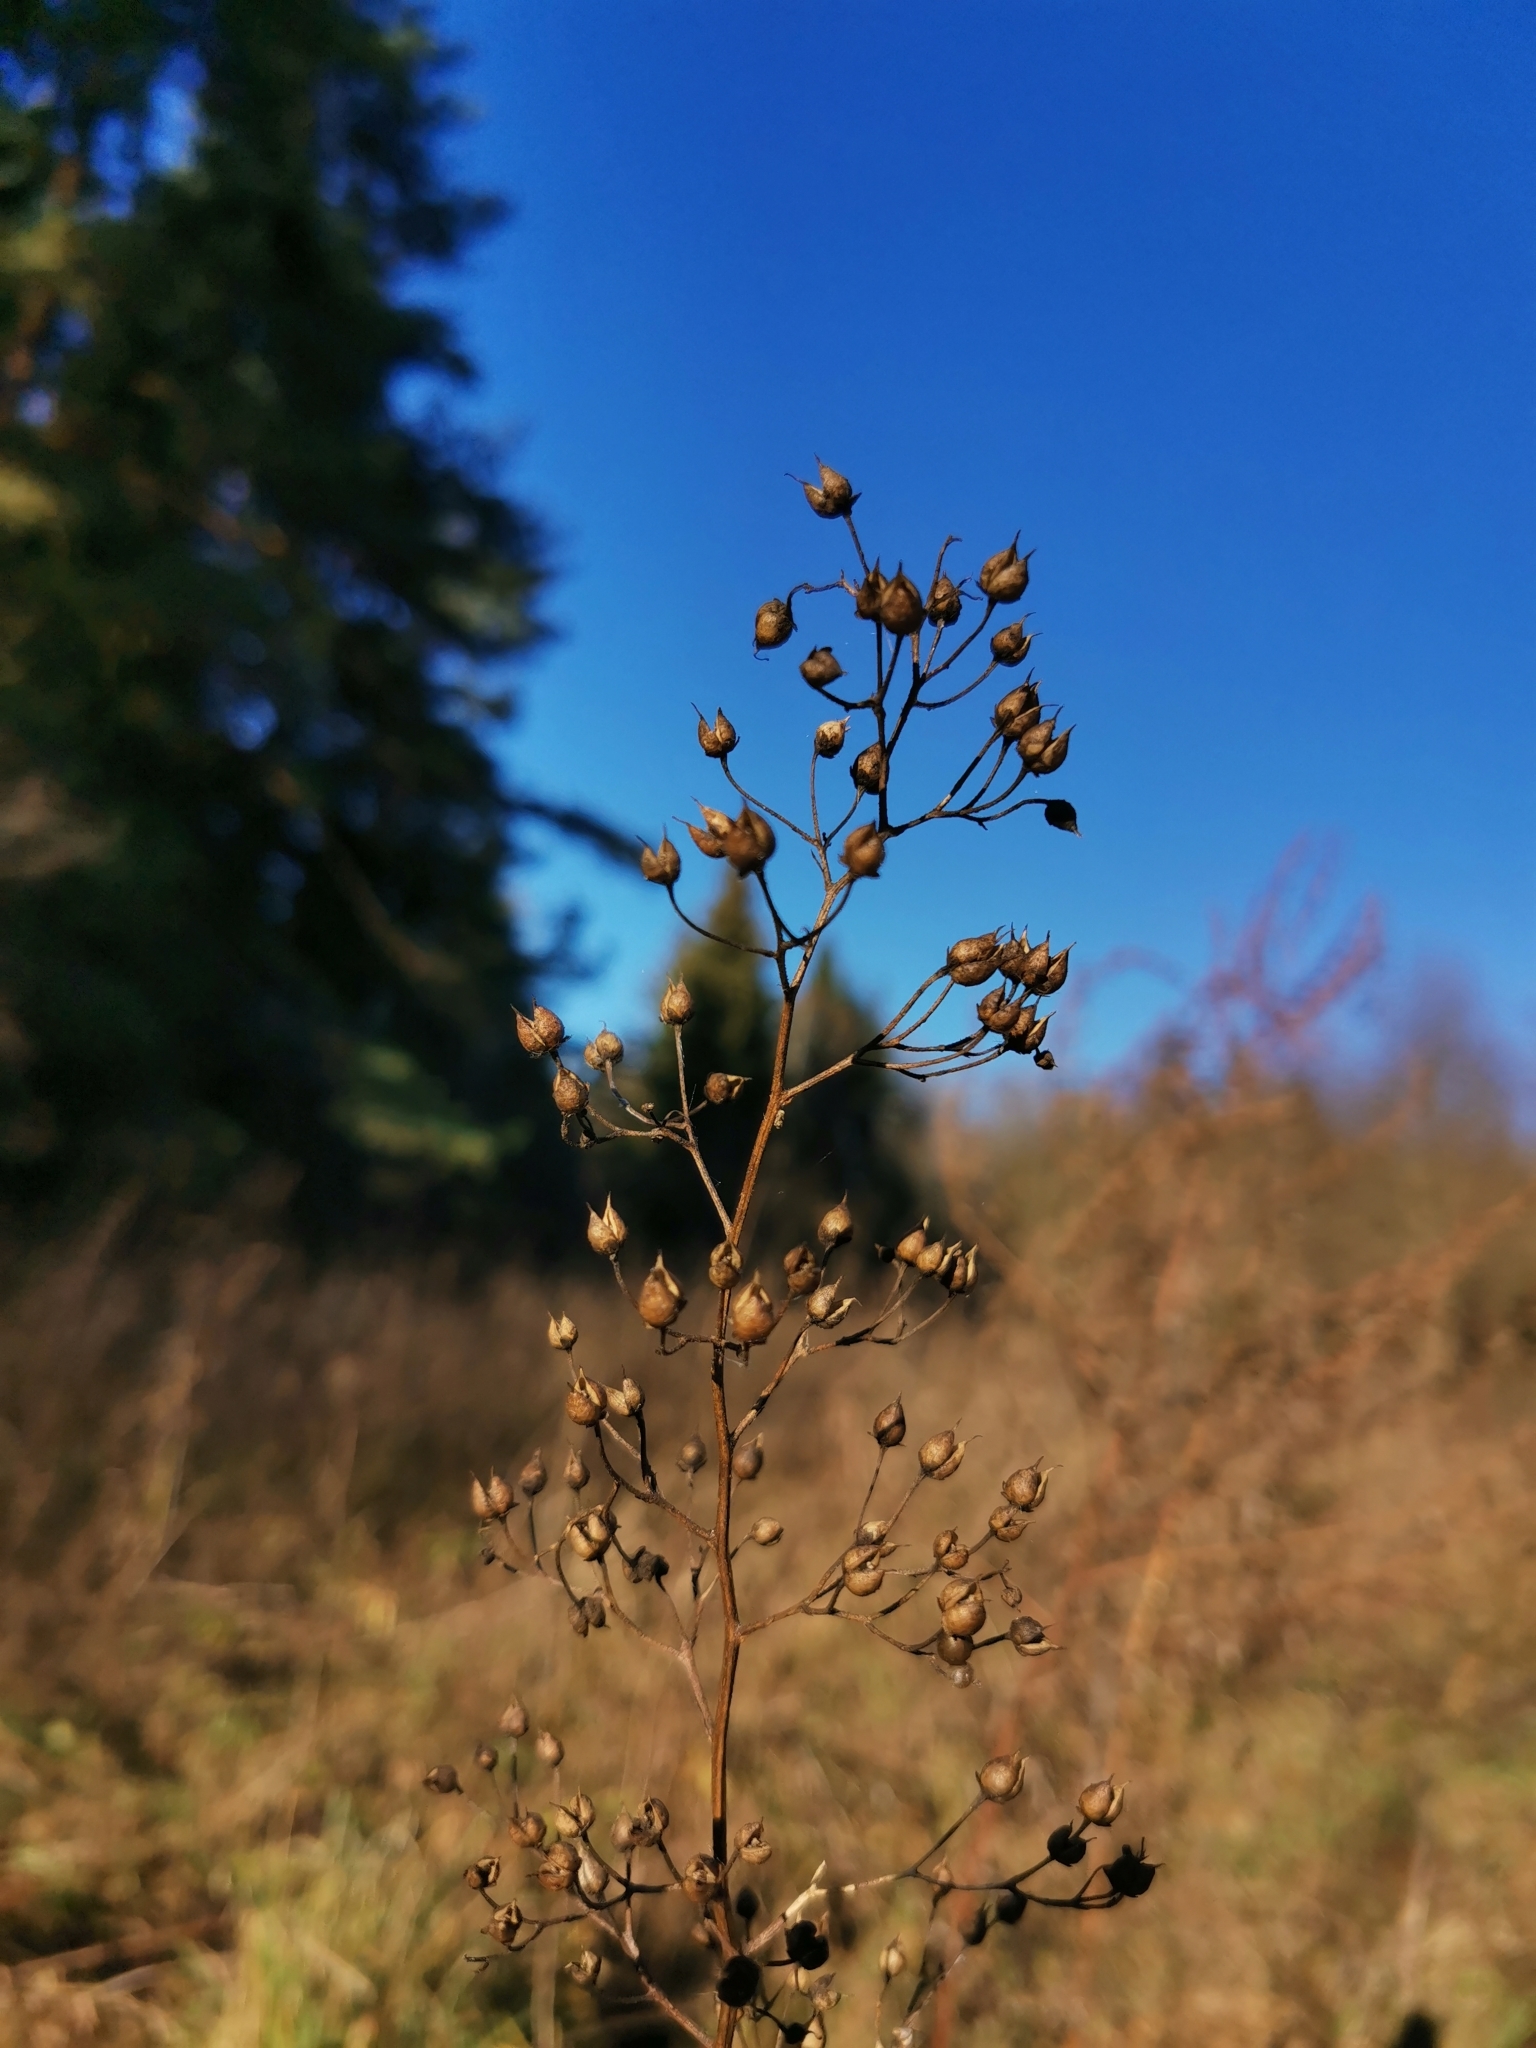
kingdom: Plantae
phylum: Tracheophyta
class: Magnoliopsida
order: Lamiales
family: Scrophulariaceae
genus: Scrophularia
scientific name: Scrophularia nodosa
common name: Common figwort
